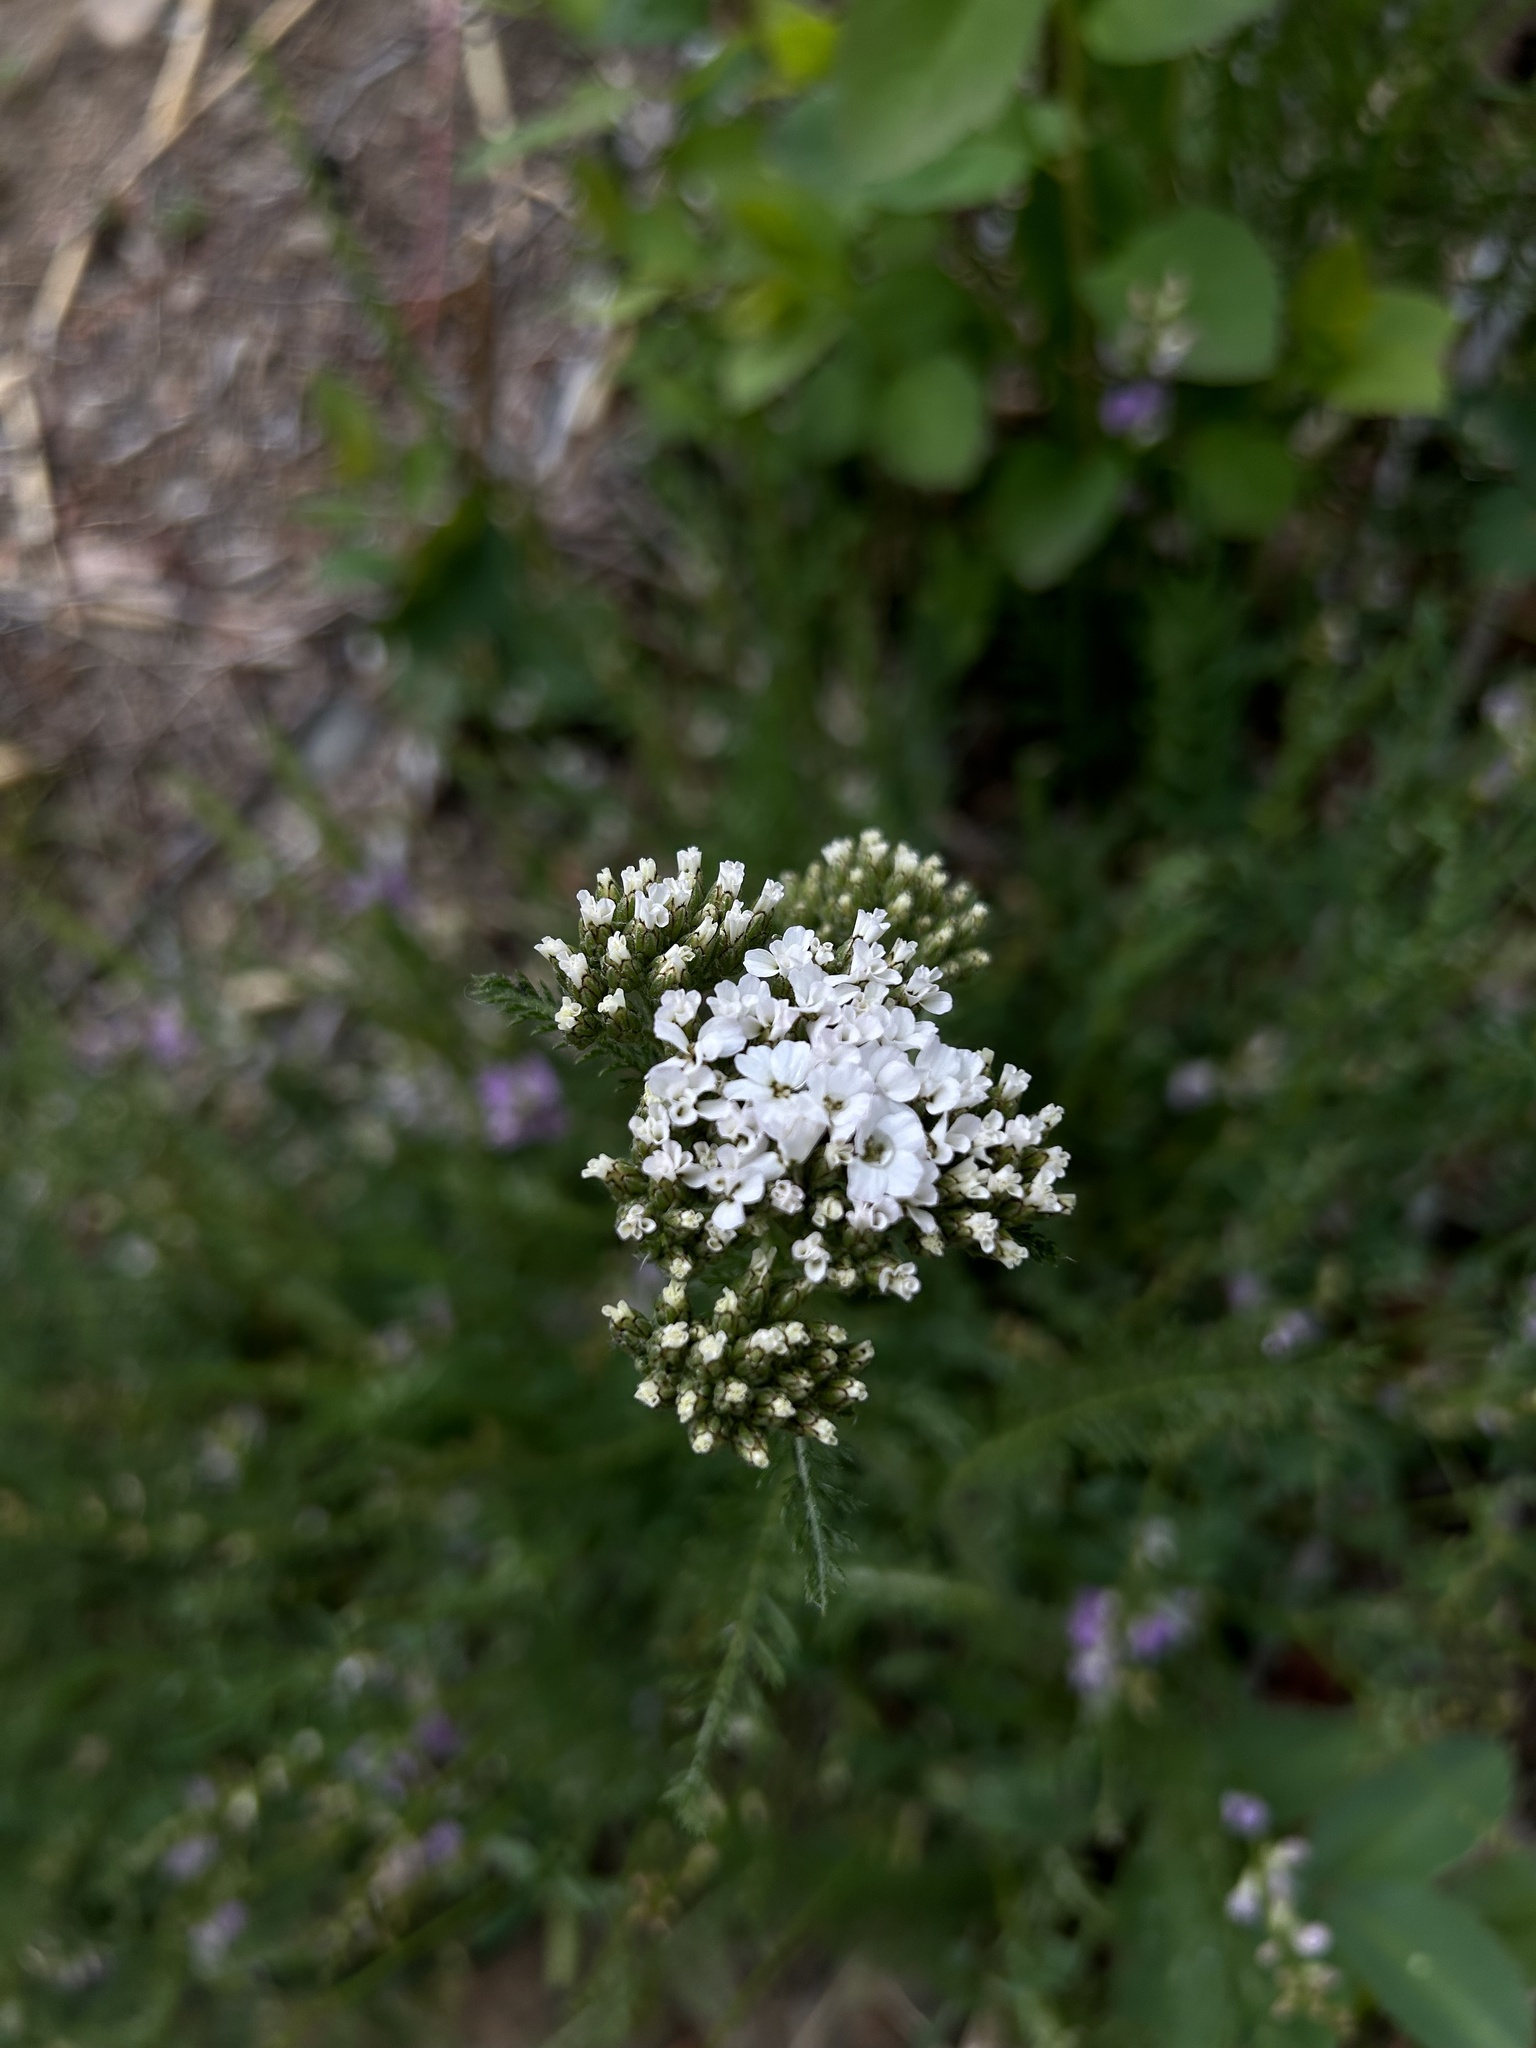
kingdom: Plantae
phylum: Tracheophyta
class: Magnoliopsida
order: Asterales
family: Asteraceae
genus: Achillea
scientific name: Achillea millefolium
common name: Yarrow
